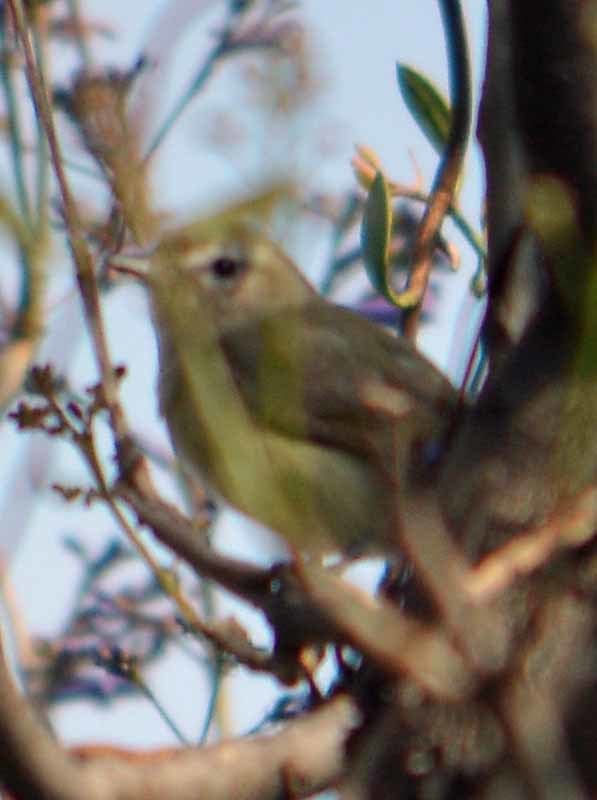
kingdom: Animalia
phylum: Chordata
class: Aves
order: Passeriformes
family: Vireonidae
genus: Vireo
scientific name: Vireo gilvus
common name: Warbling vireo
